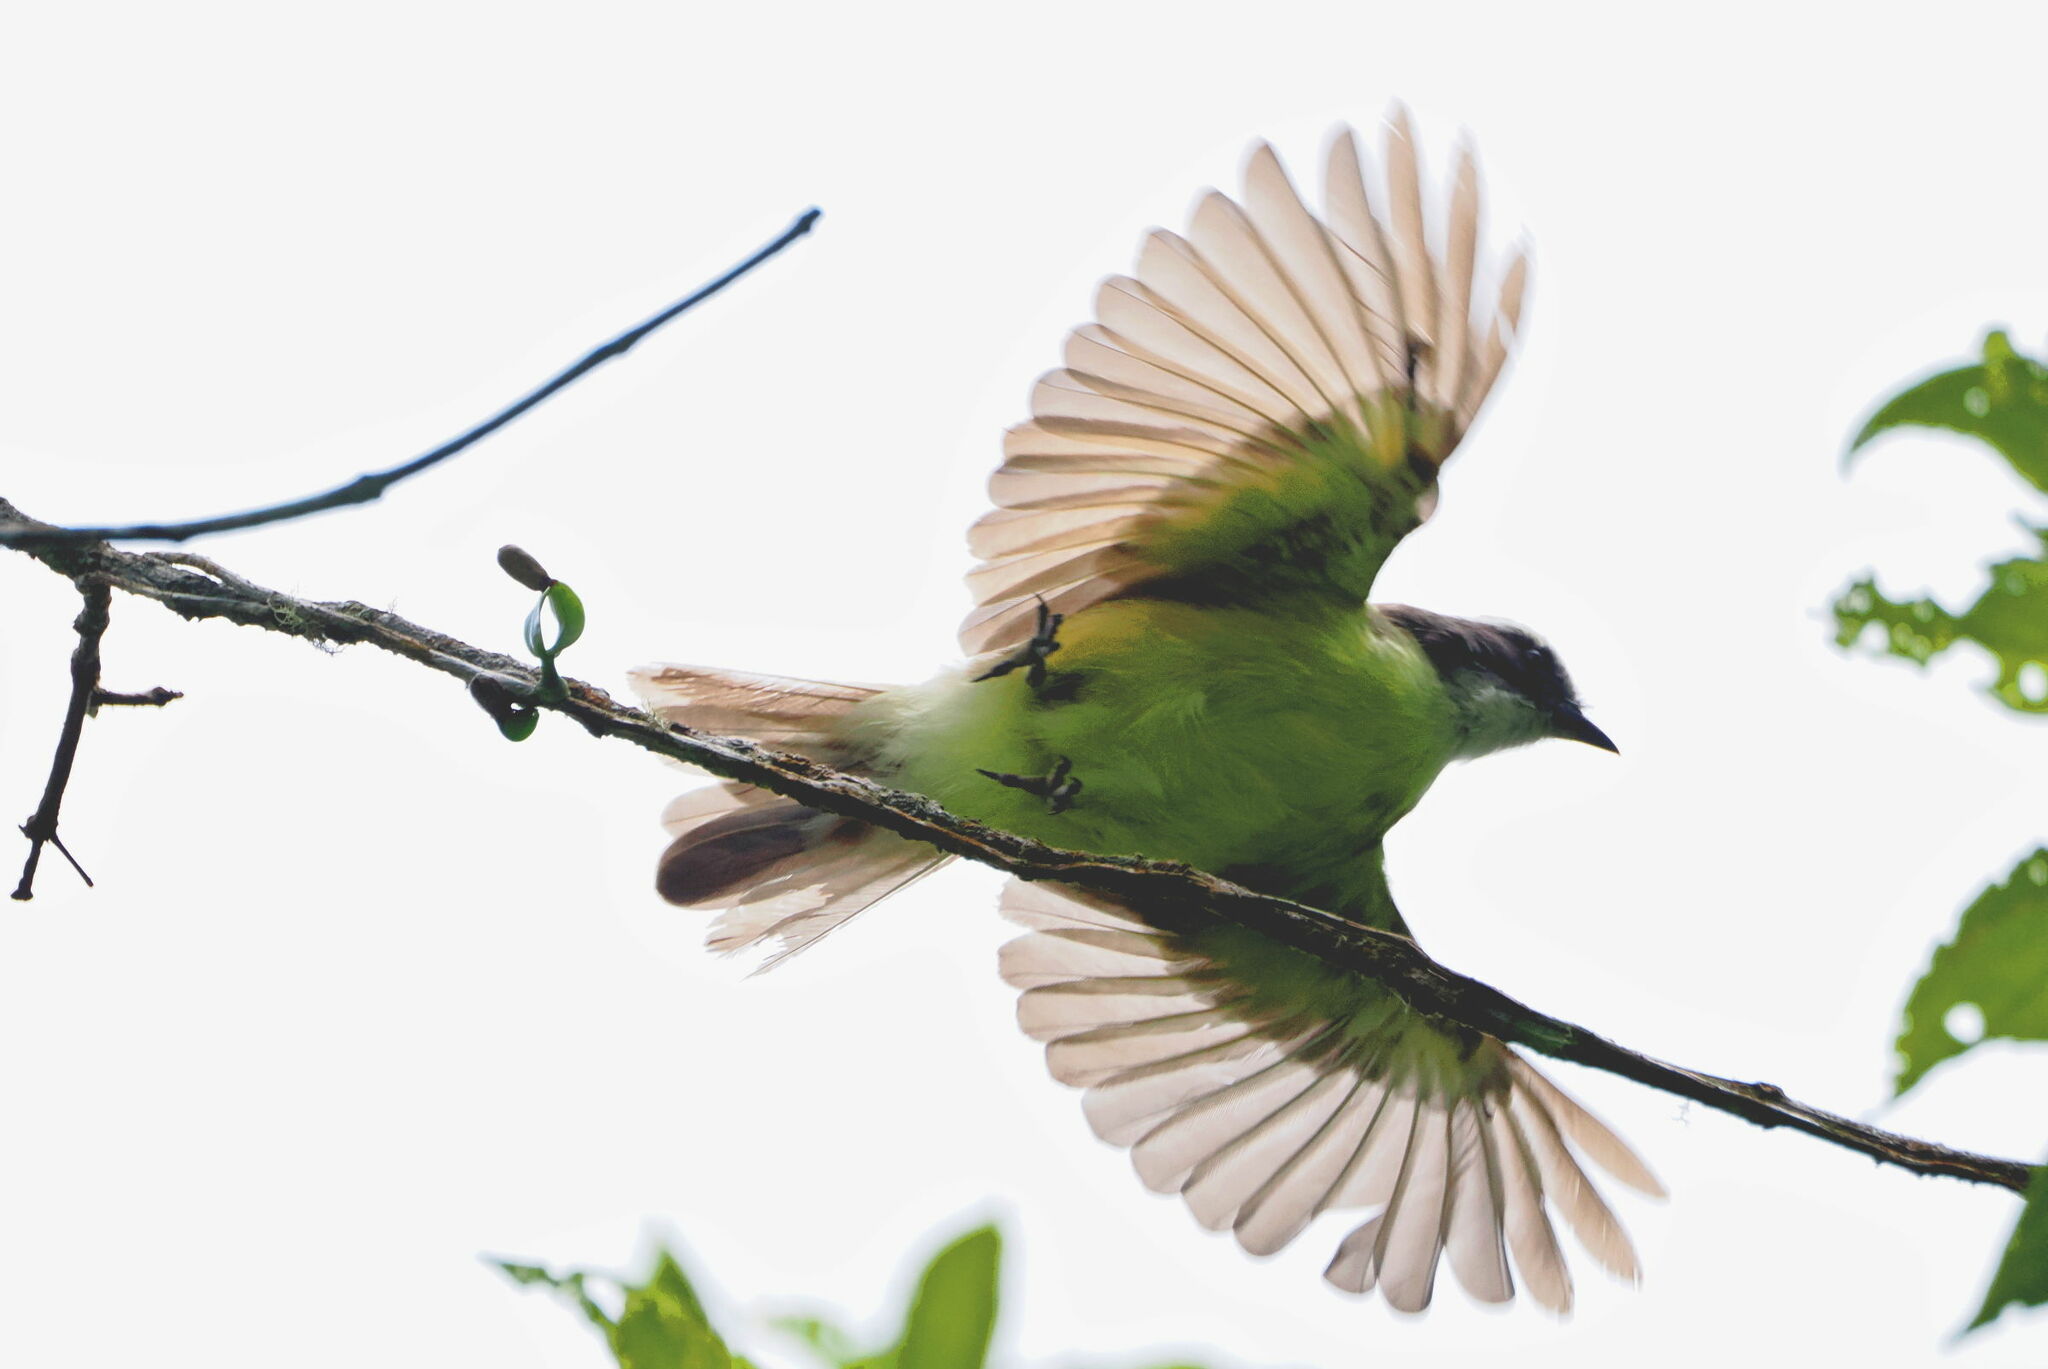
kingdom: Animalia
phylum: Chordata
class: Aves
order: Passeriformes
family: Tyrannidae
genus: Myiozetetes
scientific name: Myiozetetes similis
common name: Social flycatcher
